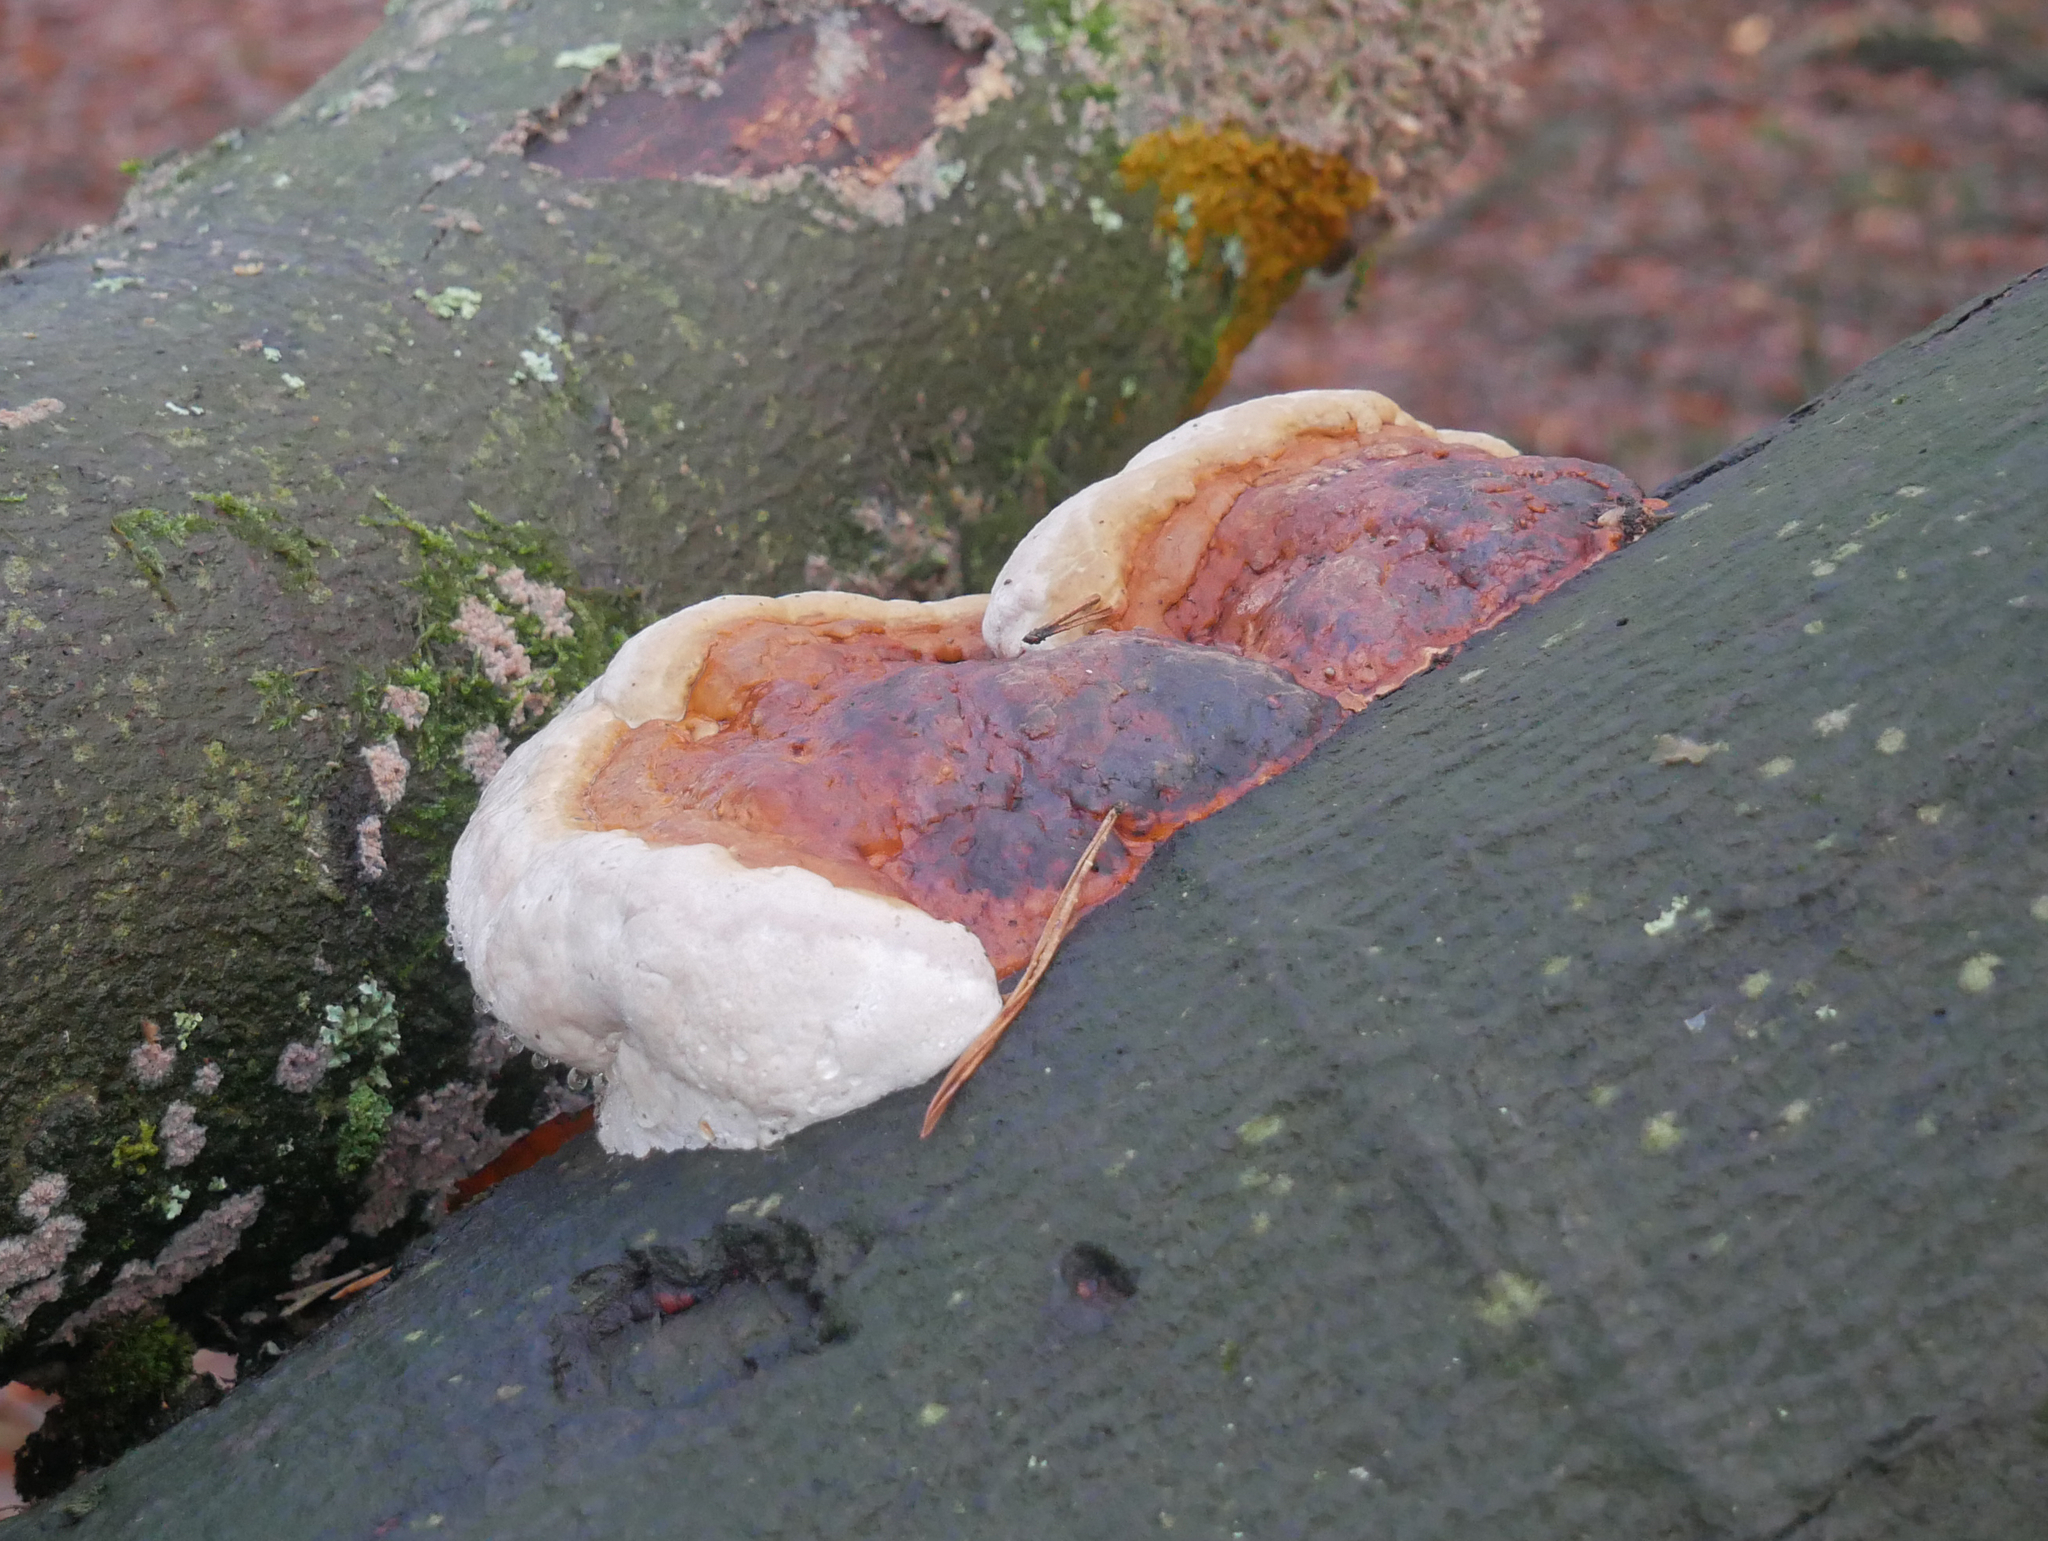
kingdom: Fungi
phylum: Basidiomycota
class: Agaricomycetes
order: Polyporales
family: Fomitopsidaceae
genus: Fomitopsis
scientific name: Fomitopsis pinicola
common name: Red-belted bracket
